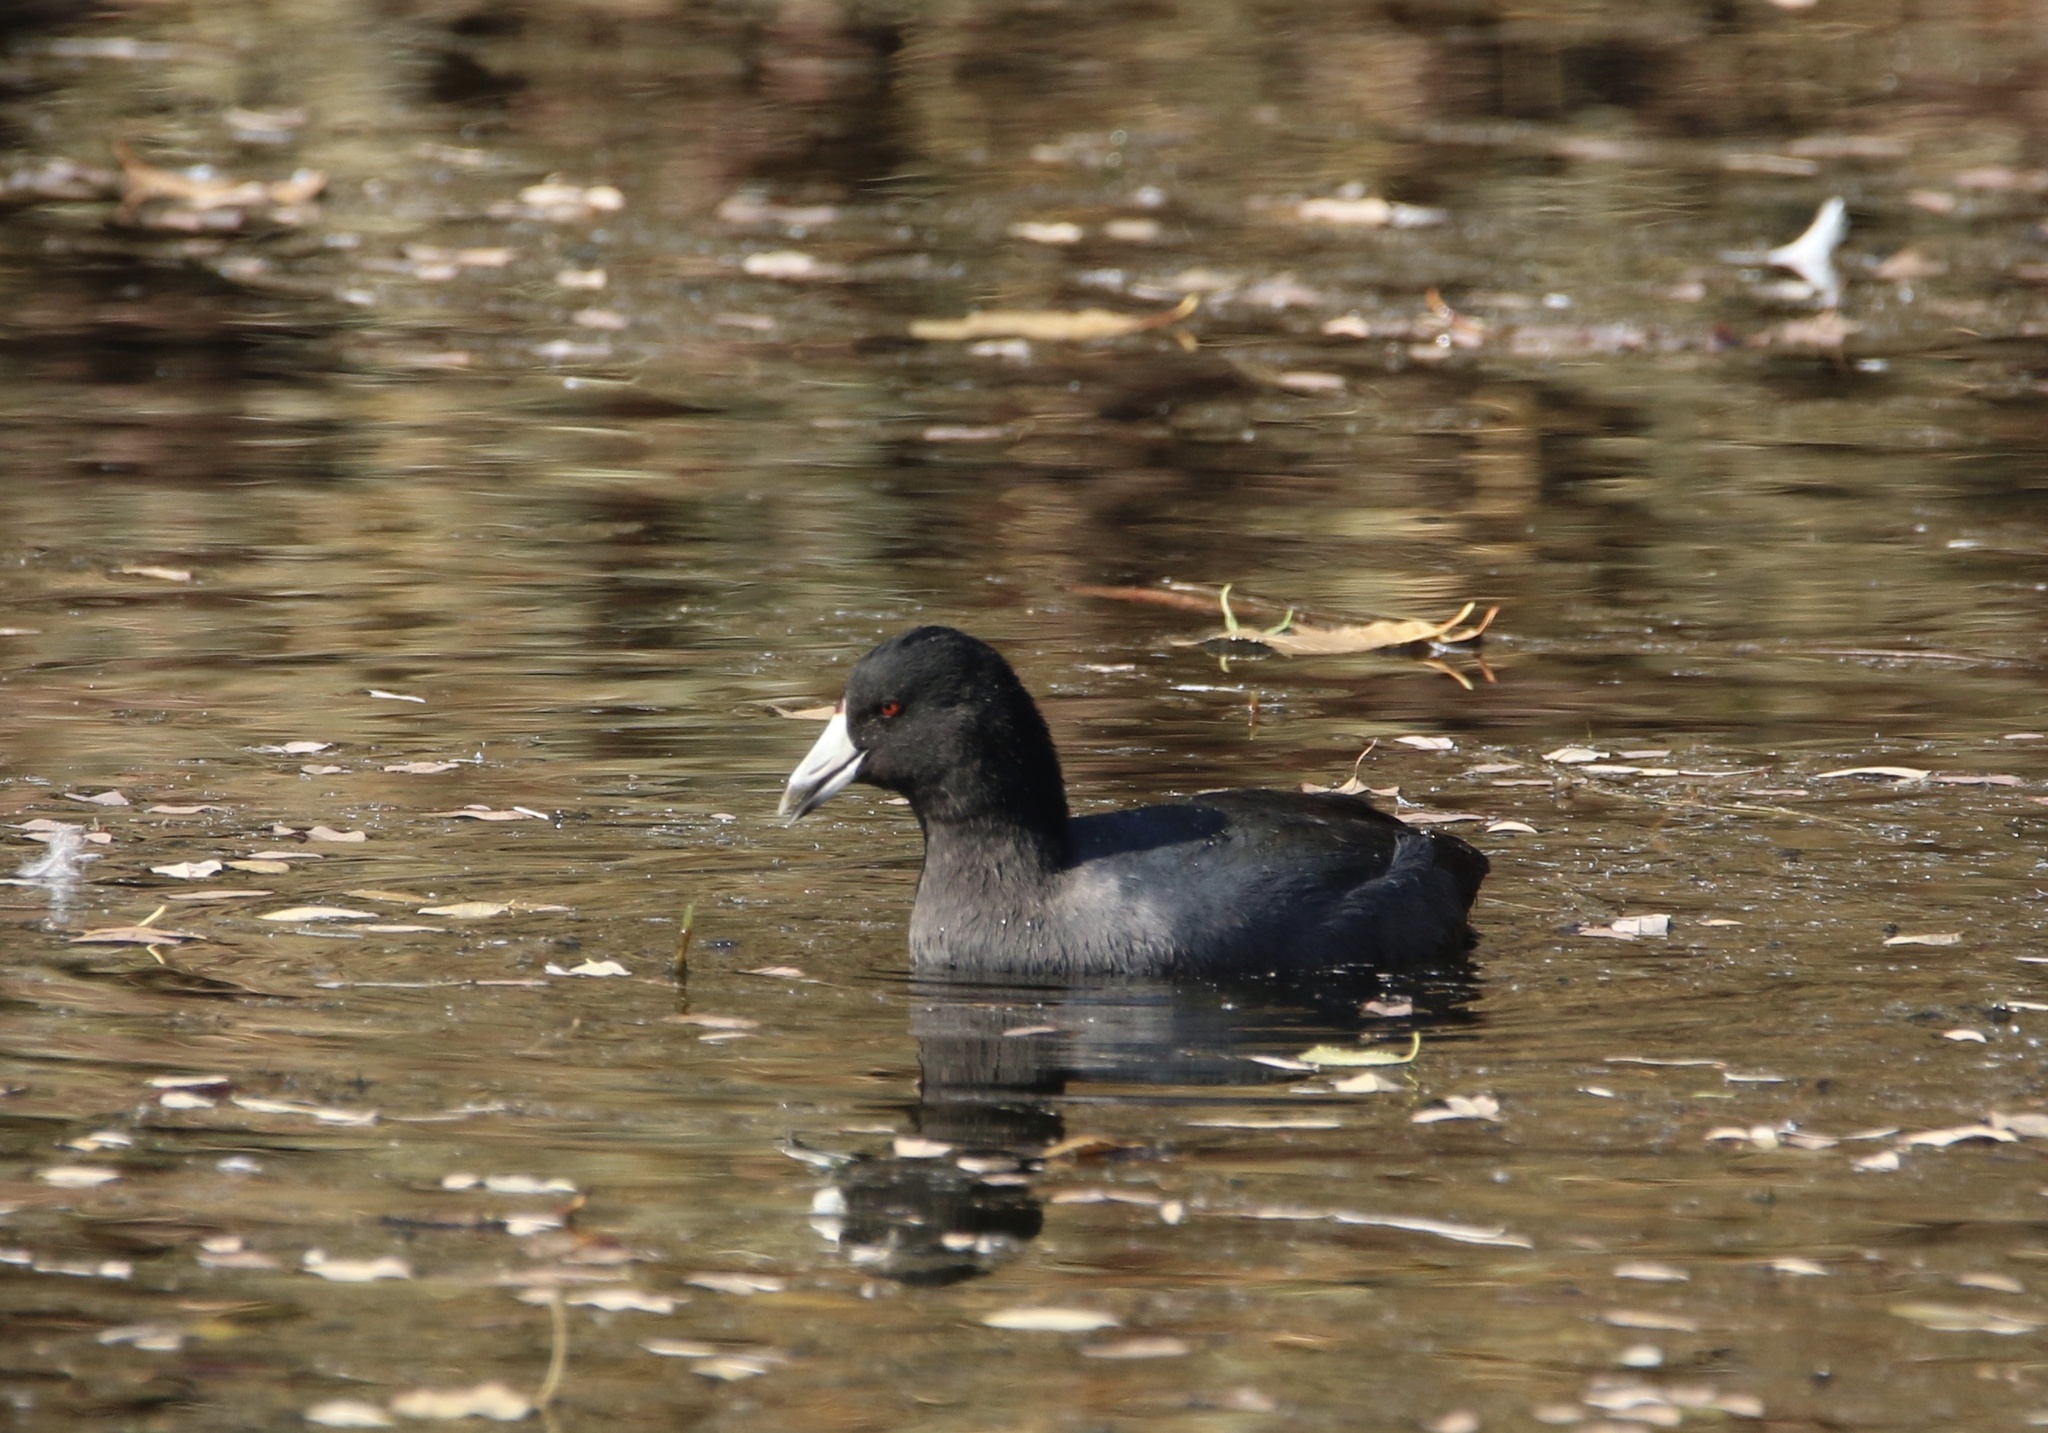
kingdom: Animalia
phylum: Chordata
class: Aves
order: Gruiformes
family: Rallidae
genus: Fulica
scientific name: Fulica americana
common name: American coot
